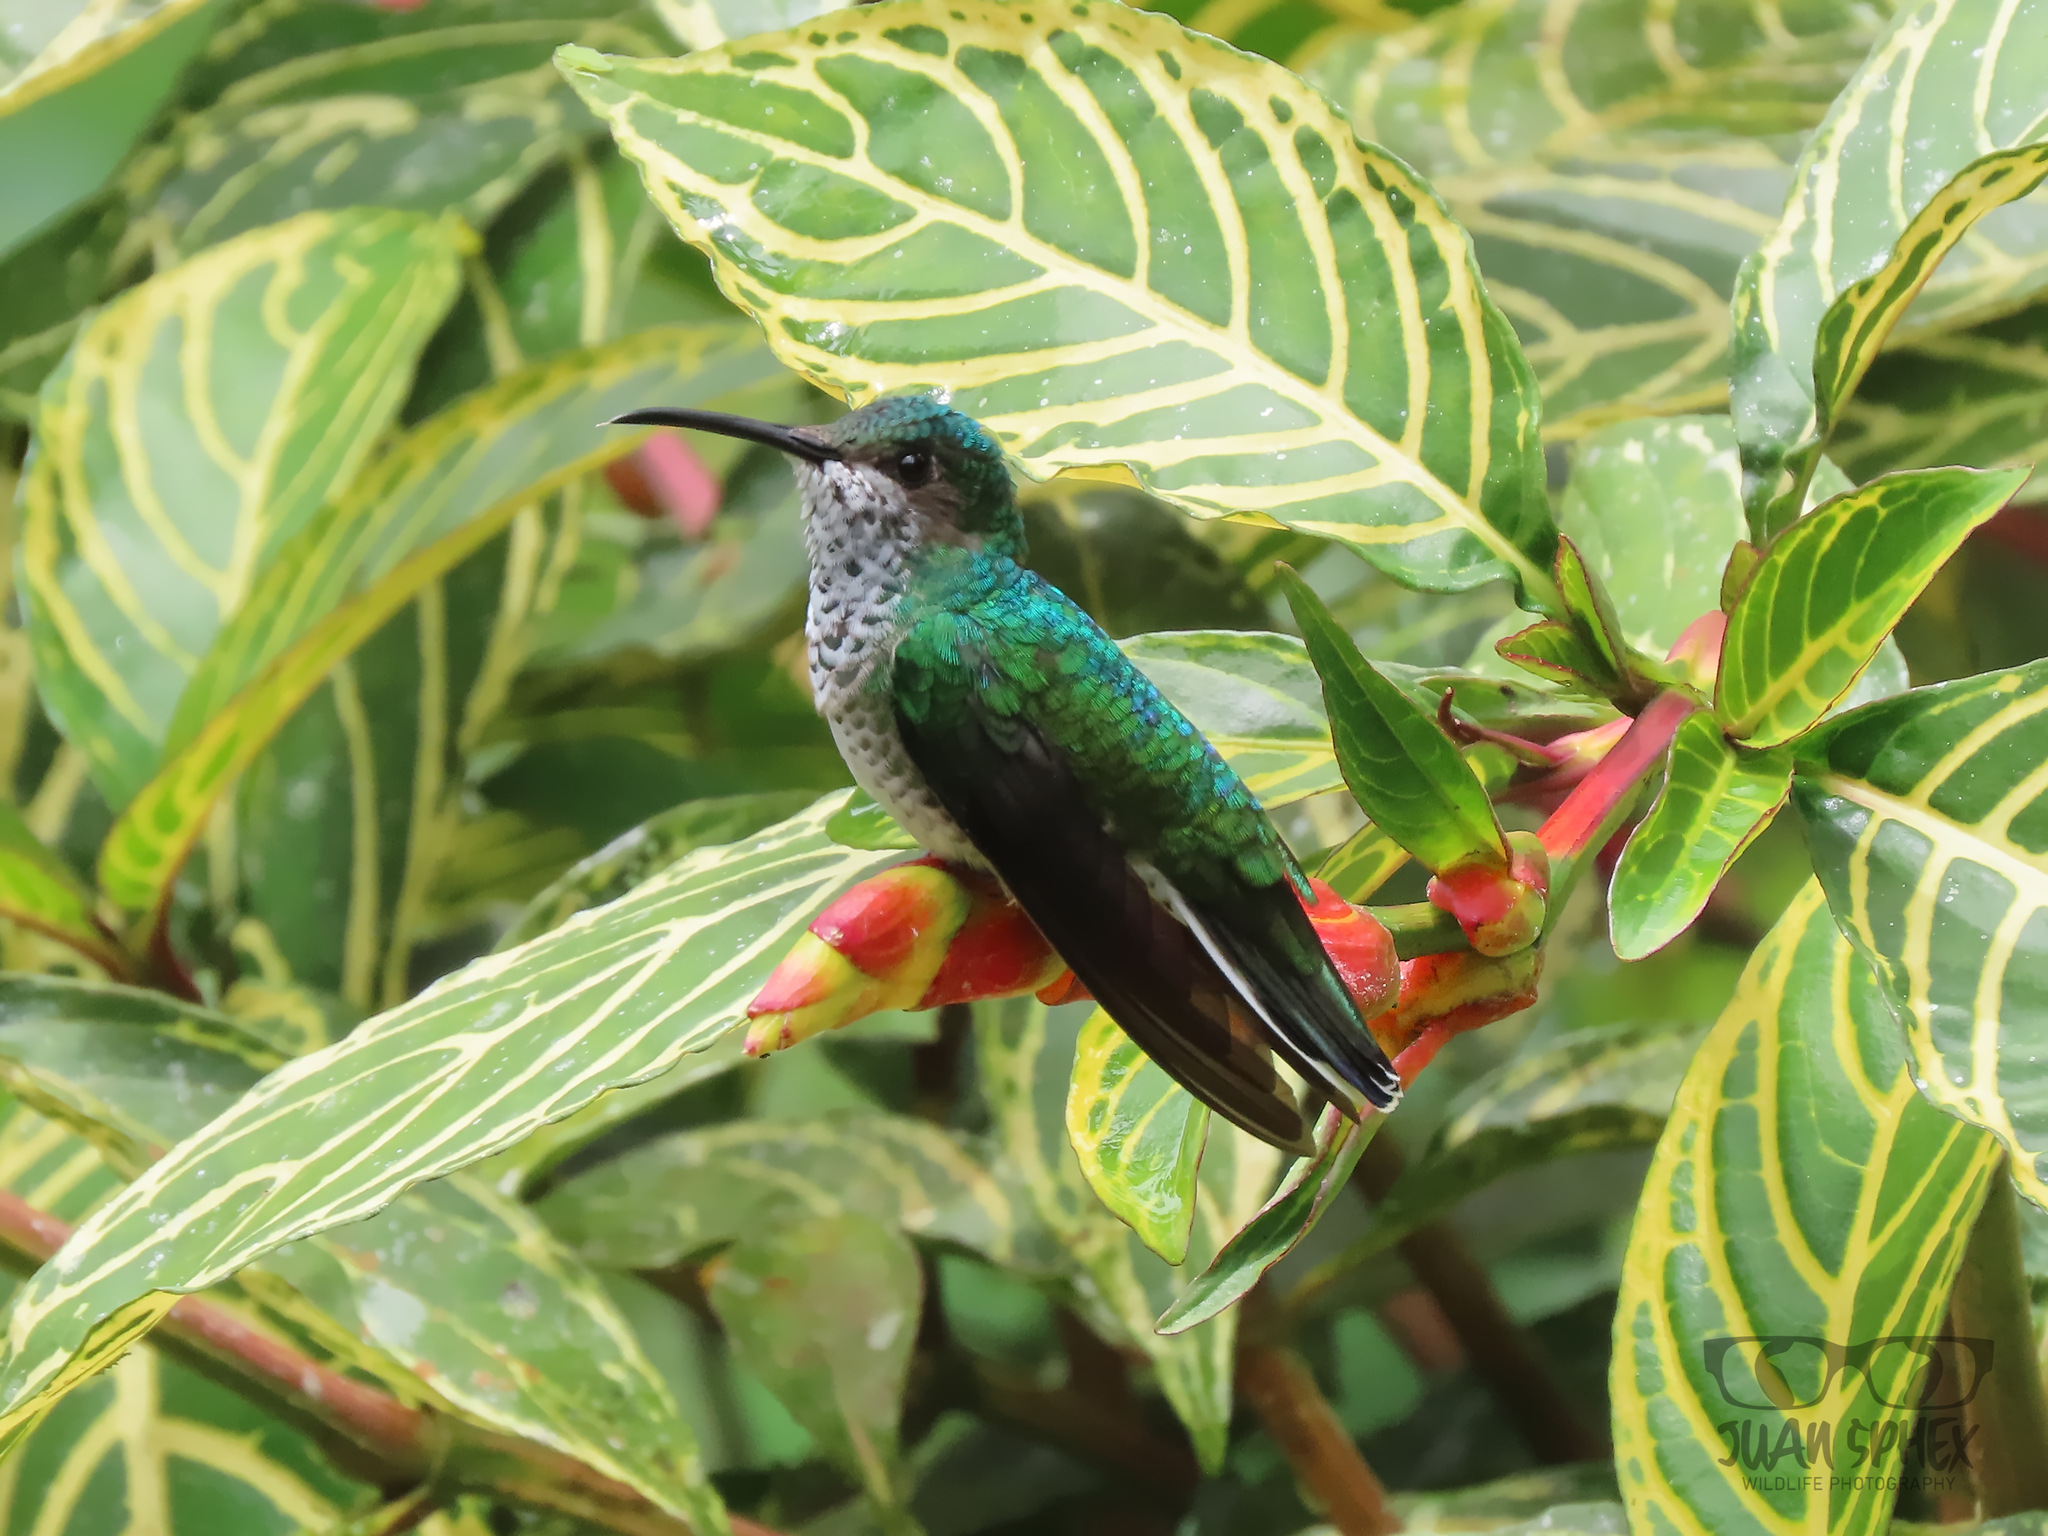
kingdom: Animalia
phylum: Chordata
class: Aves
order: Apodiformes
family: Trochilidae
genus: Florisuga
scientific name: Florisuga mellivora
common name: White-necked jacobin
